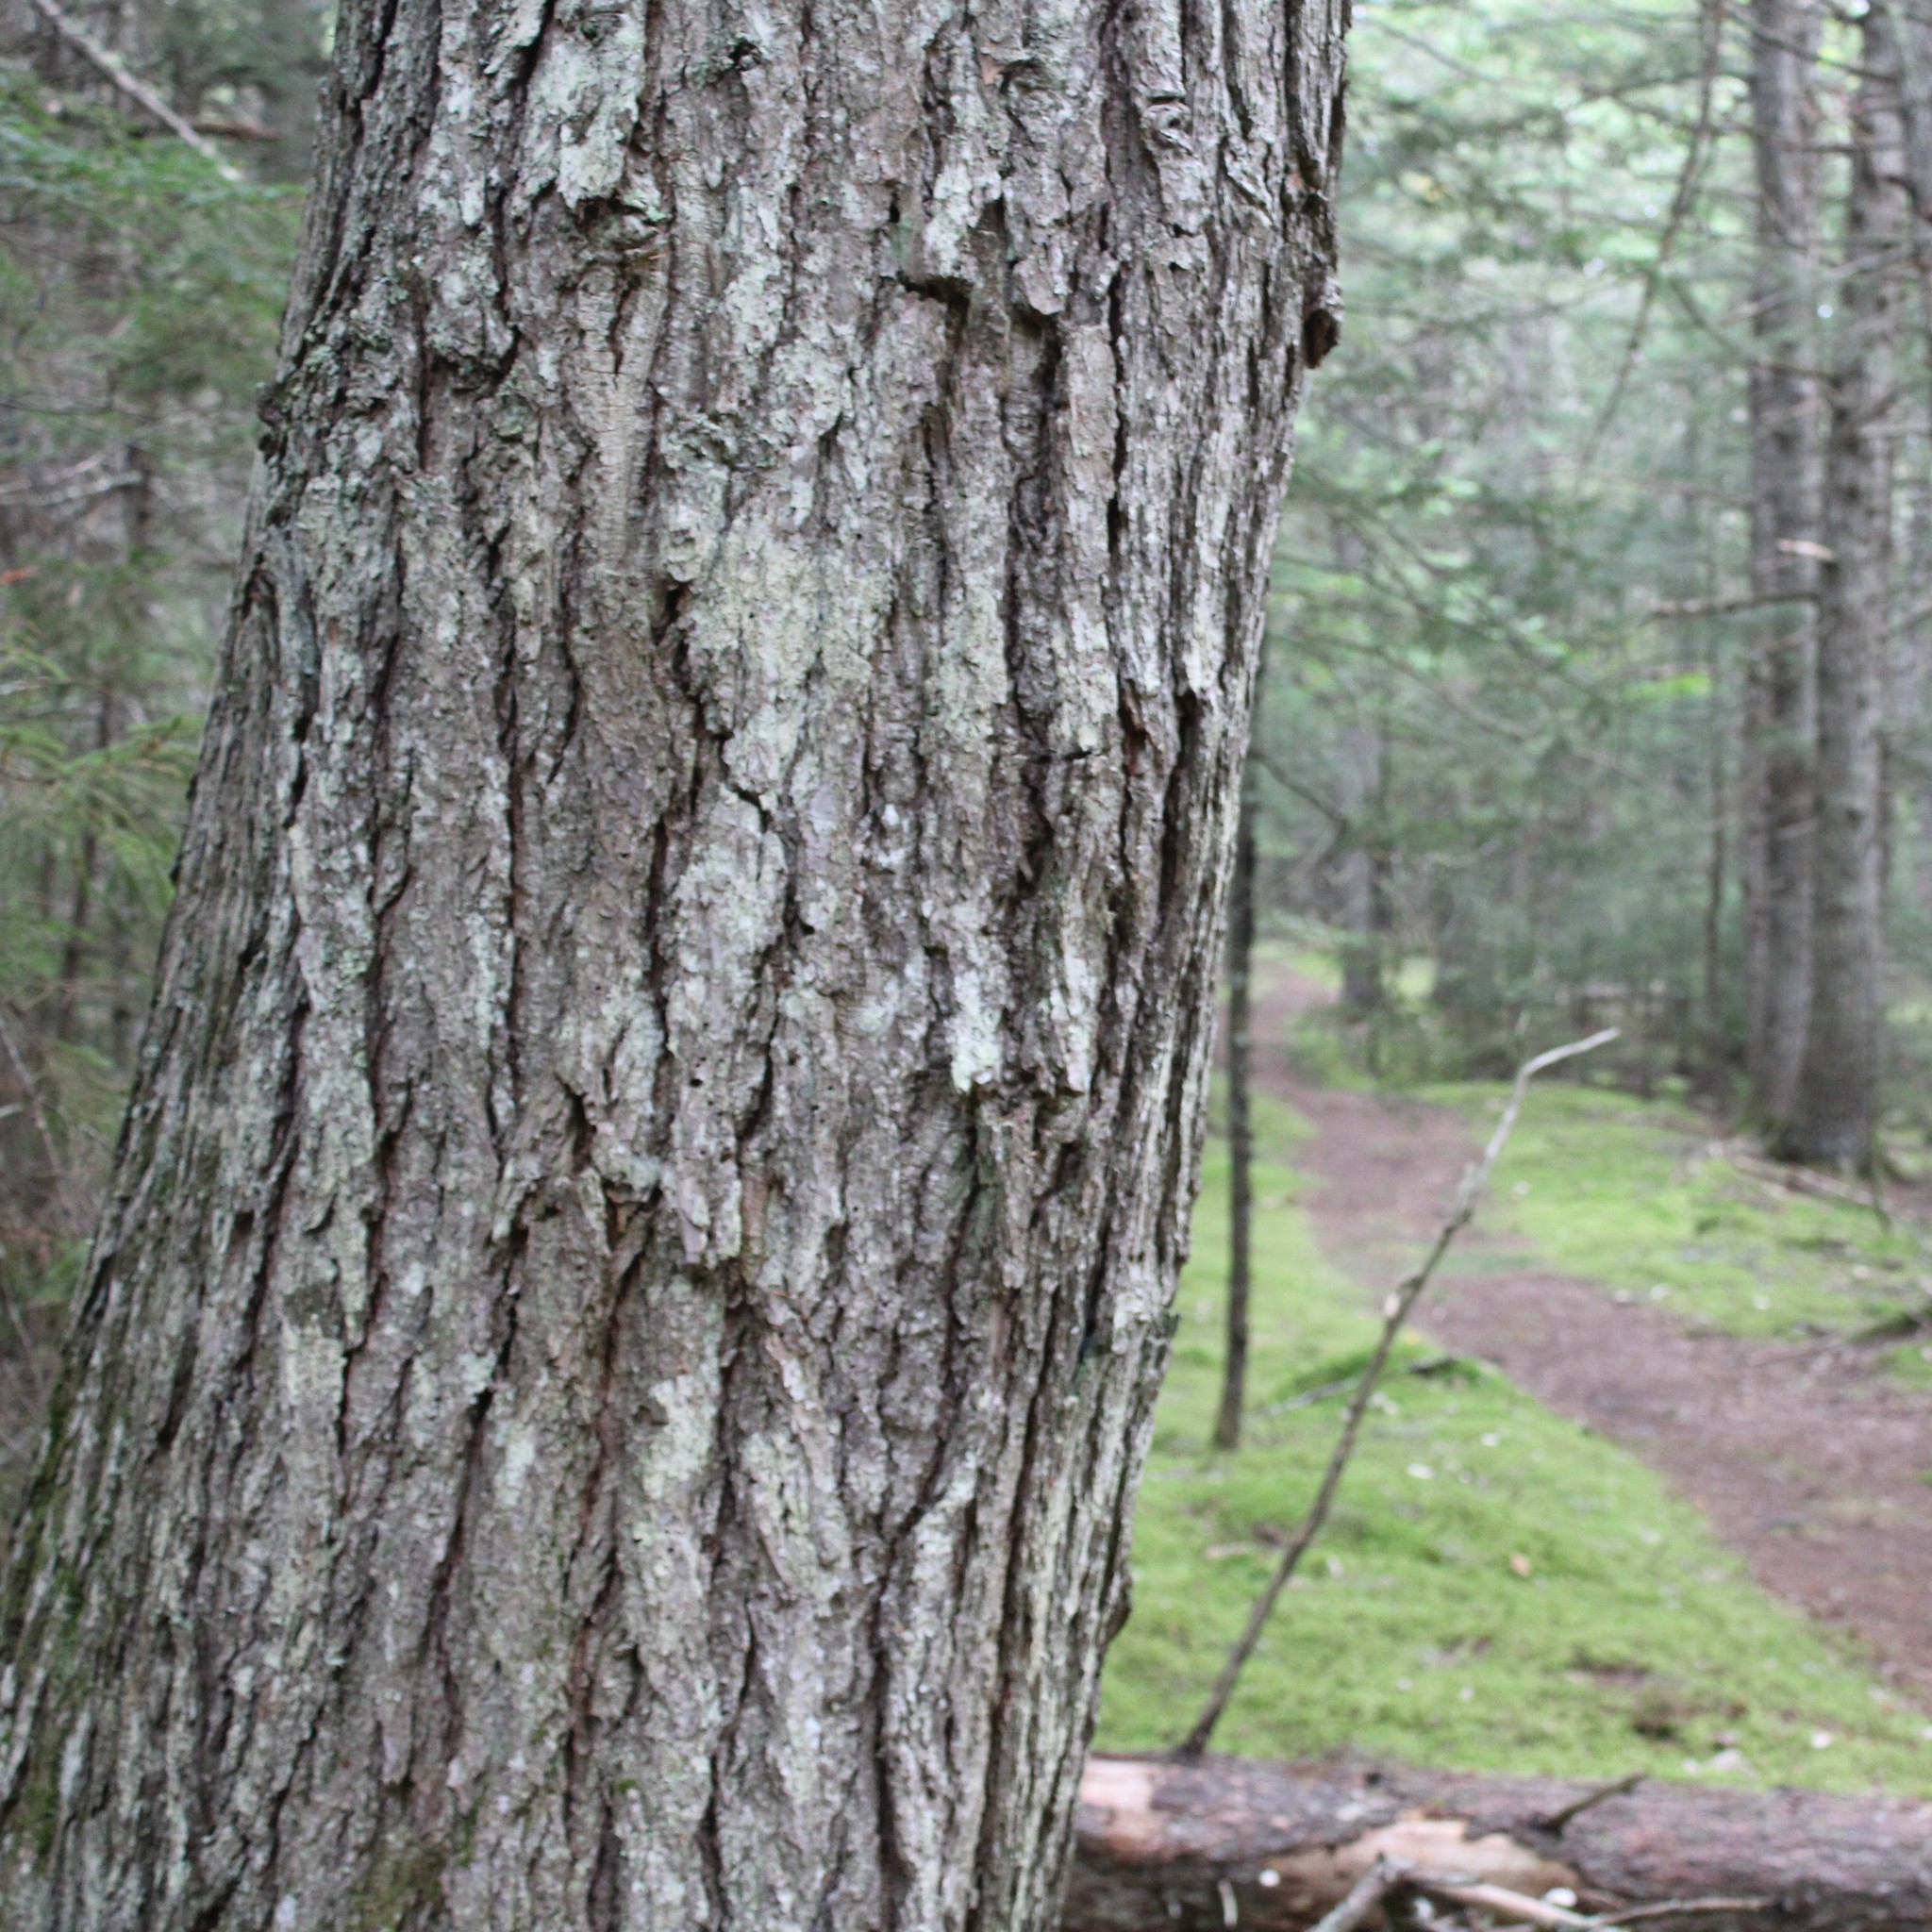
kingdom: Plantae
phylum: Tracheophyta
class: Pinopsida
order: Pinales
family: Pinaceae
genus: Tsuga
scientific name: Tsuga canadensis
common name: Eastern hemlock
